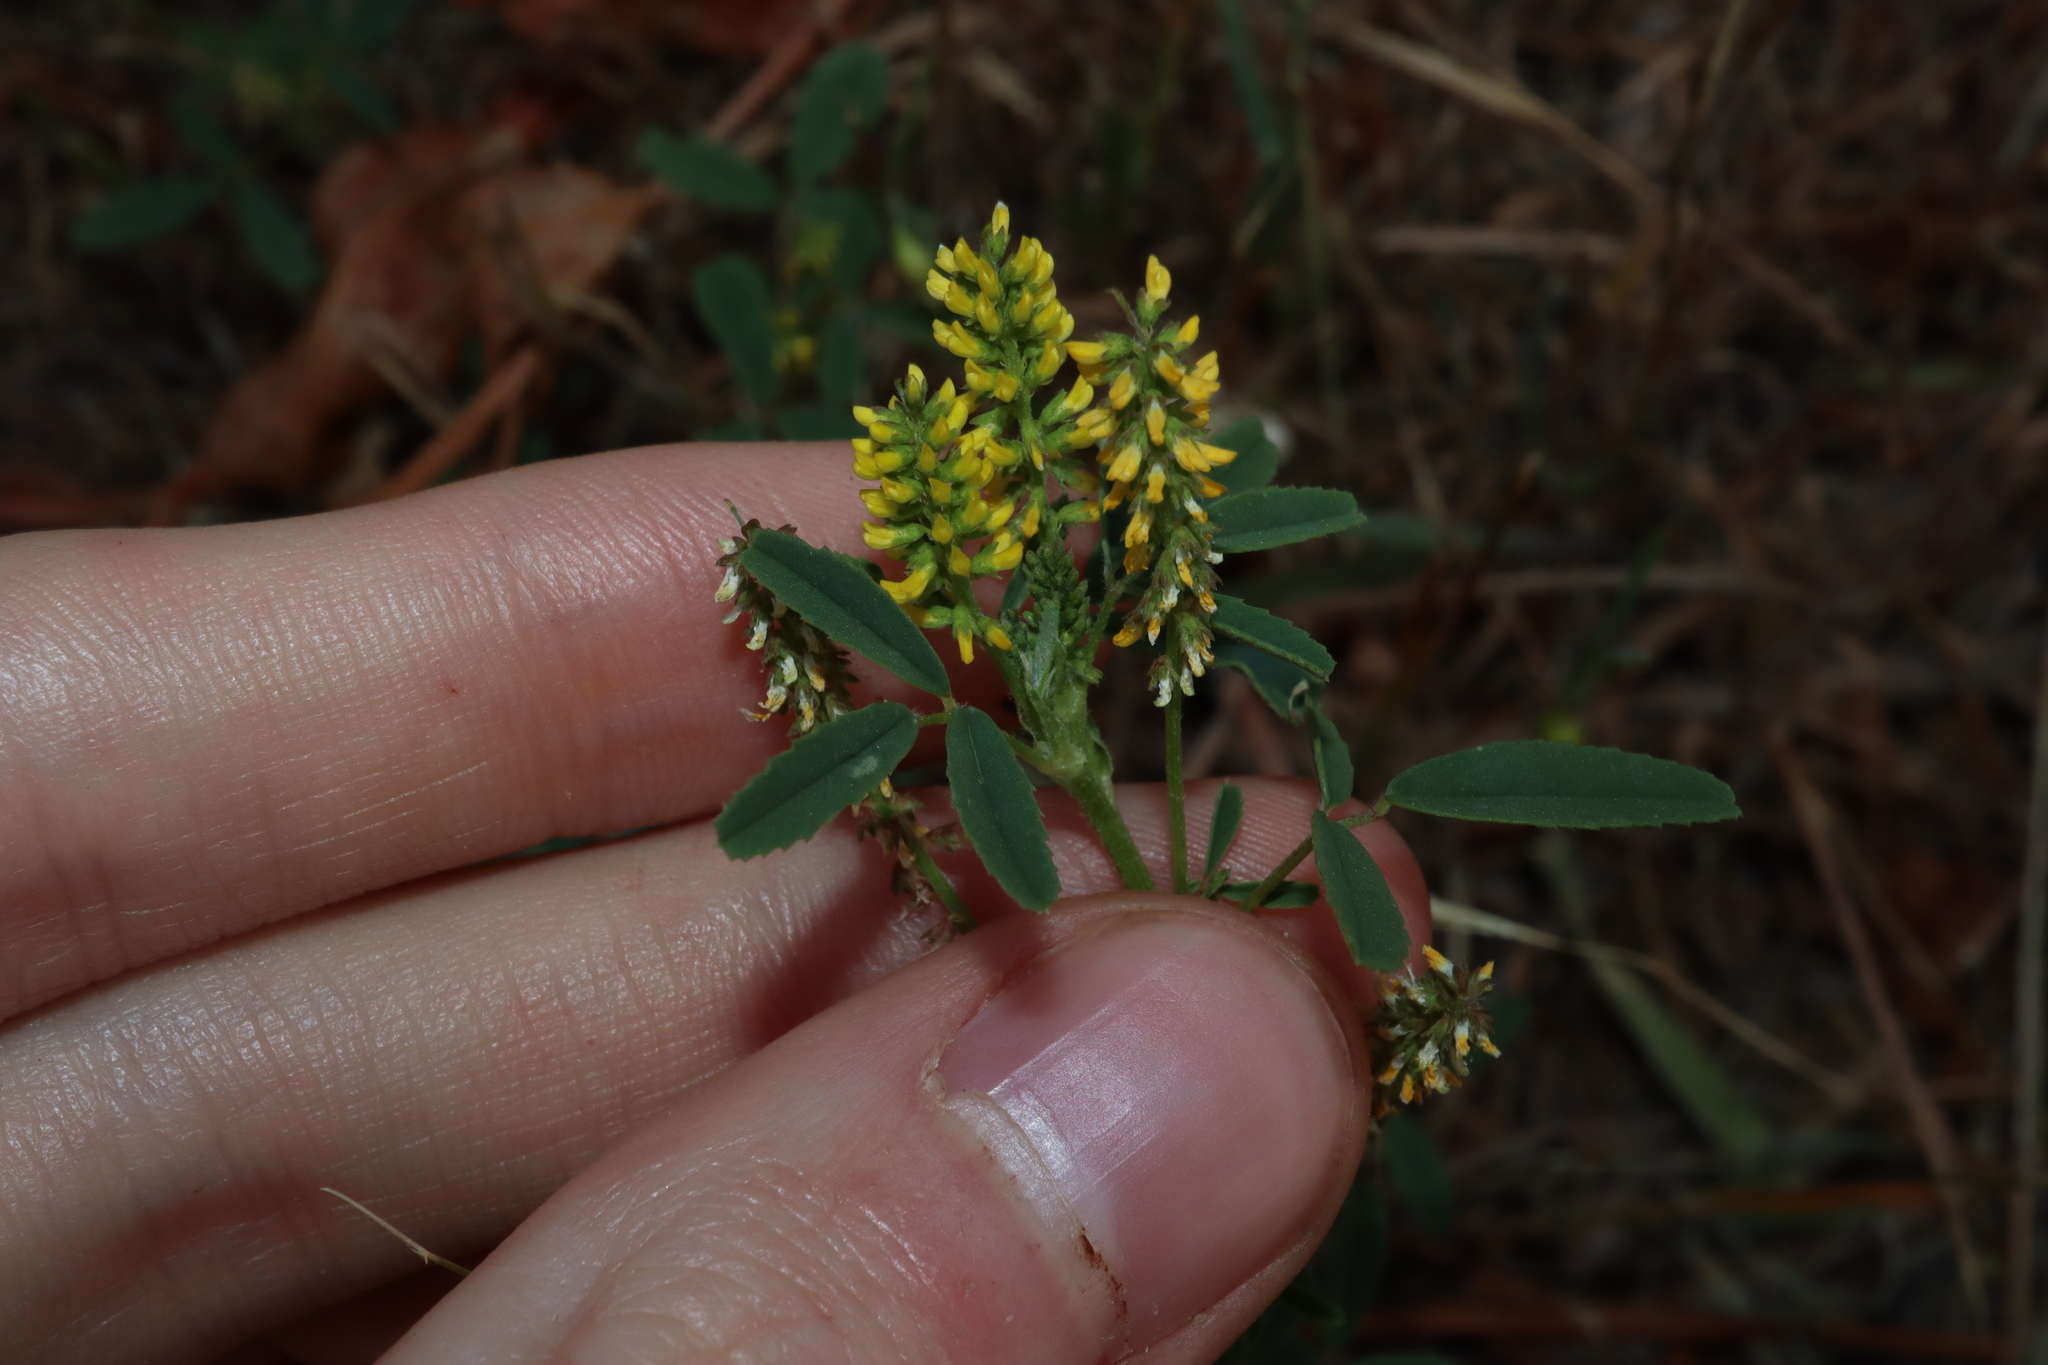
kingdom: Plantae
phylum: Tracheophyta
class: Magnoliopsida
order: Fabales
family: Fabaceae
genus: Melilotus
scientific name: Melilotus indicus
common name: Small melilot
